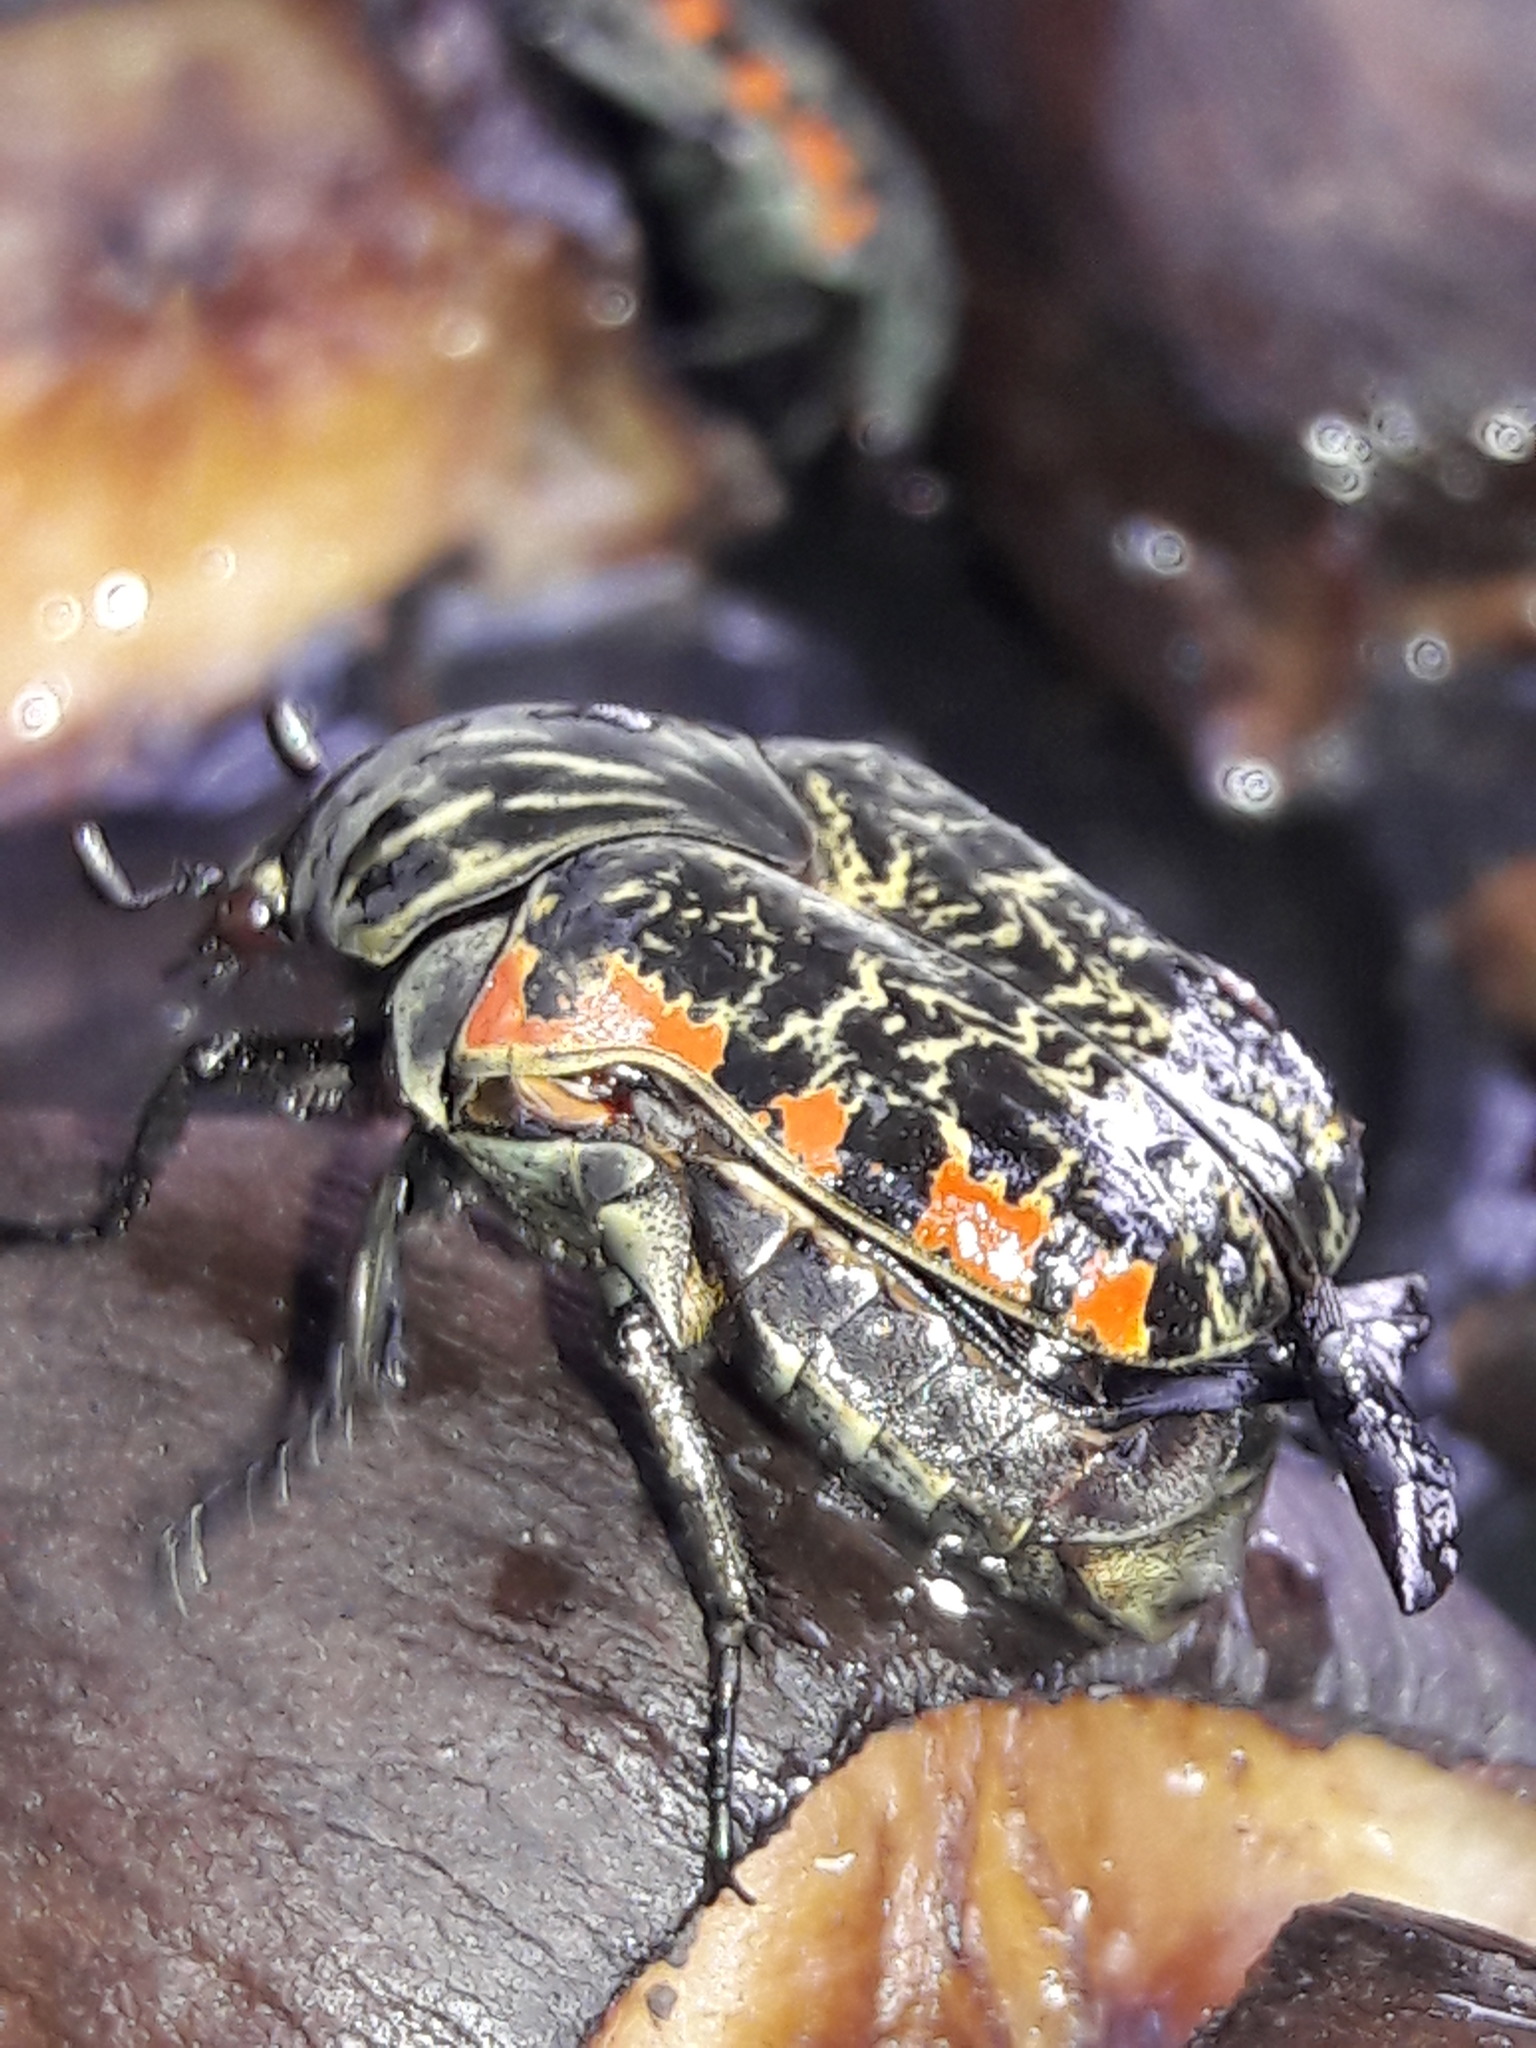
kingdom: Animalia
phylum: Arthropoda
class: Insecta
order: Coleoptera
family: Scarabaeidae
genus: Gymnetis
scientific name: Gymnetis rufilatris
